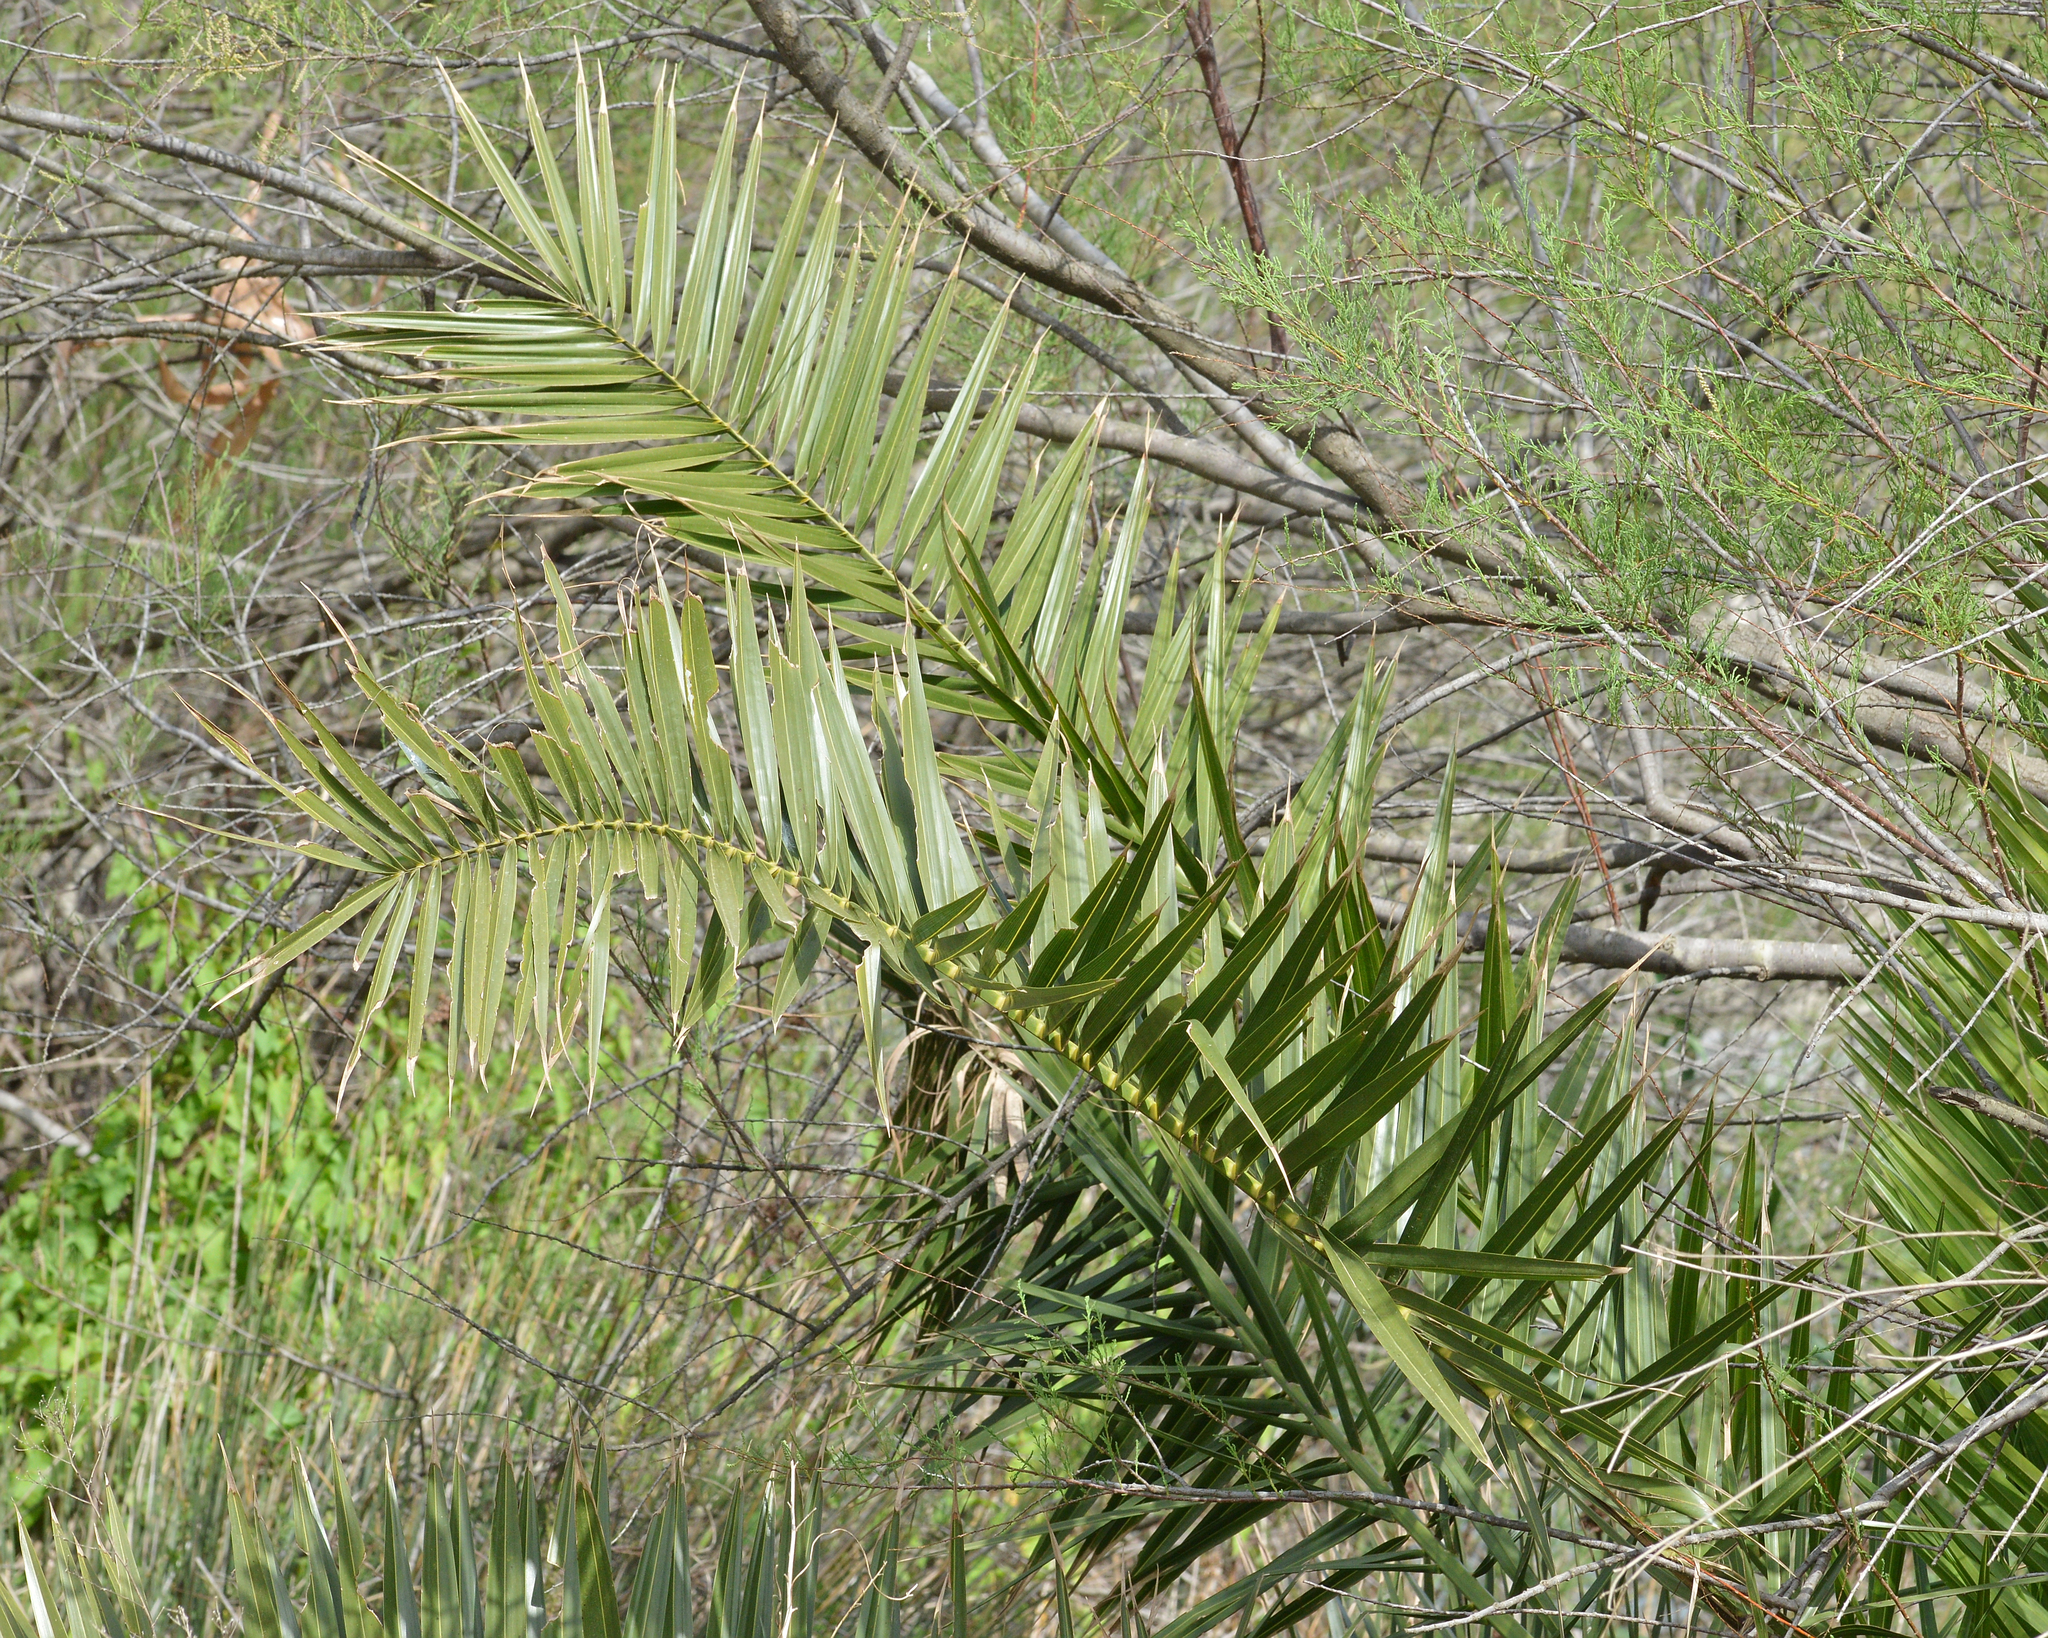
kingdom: Plantae
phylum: Tracheophyta
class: Liliopsida
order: Arecales
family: Arecaceae
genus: Phoenix
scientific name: Phoenix canariensis
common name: Canary island date palm
